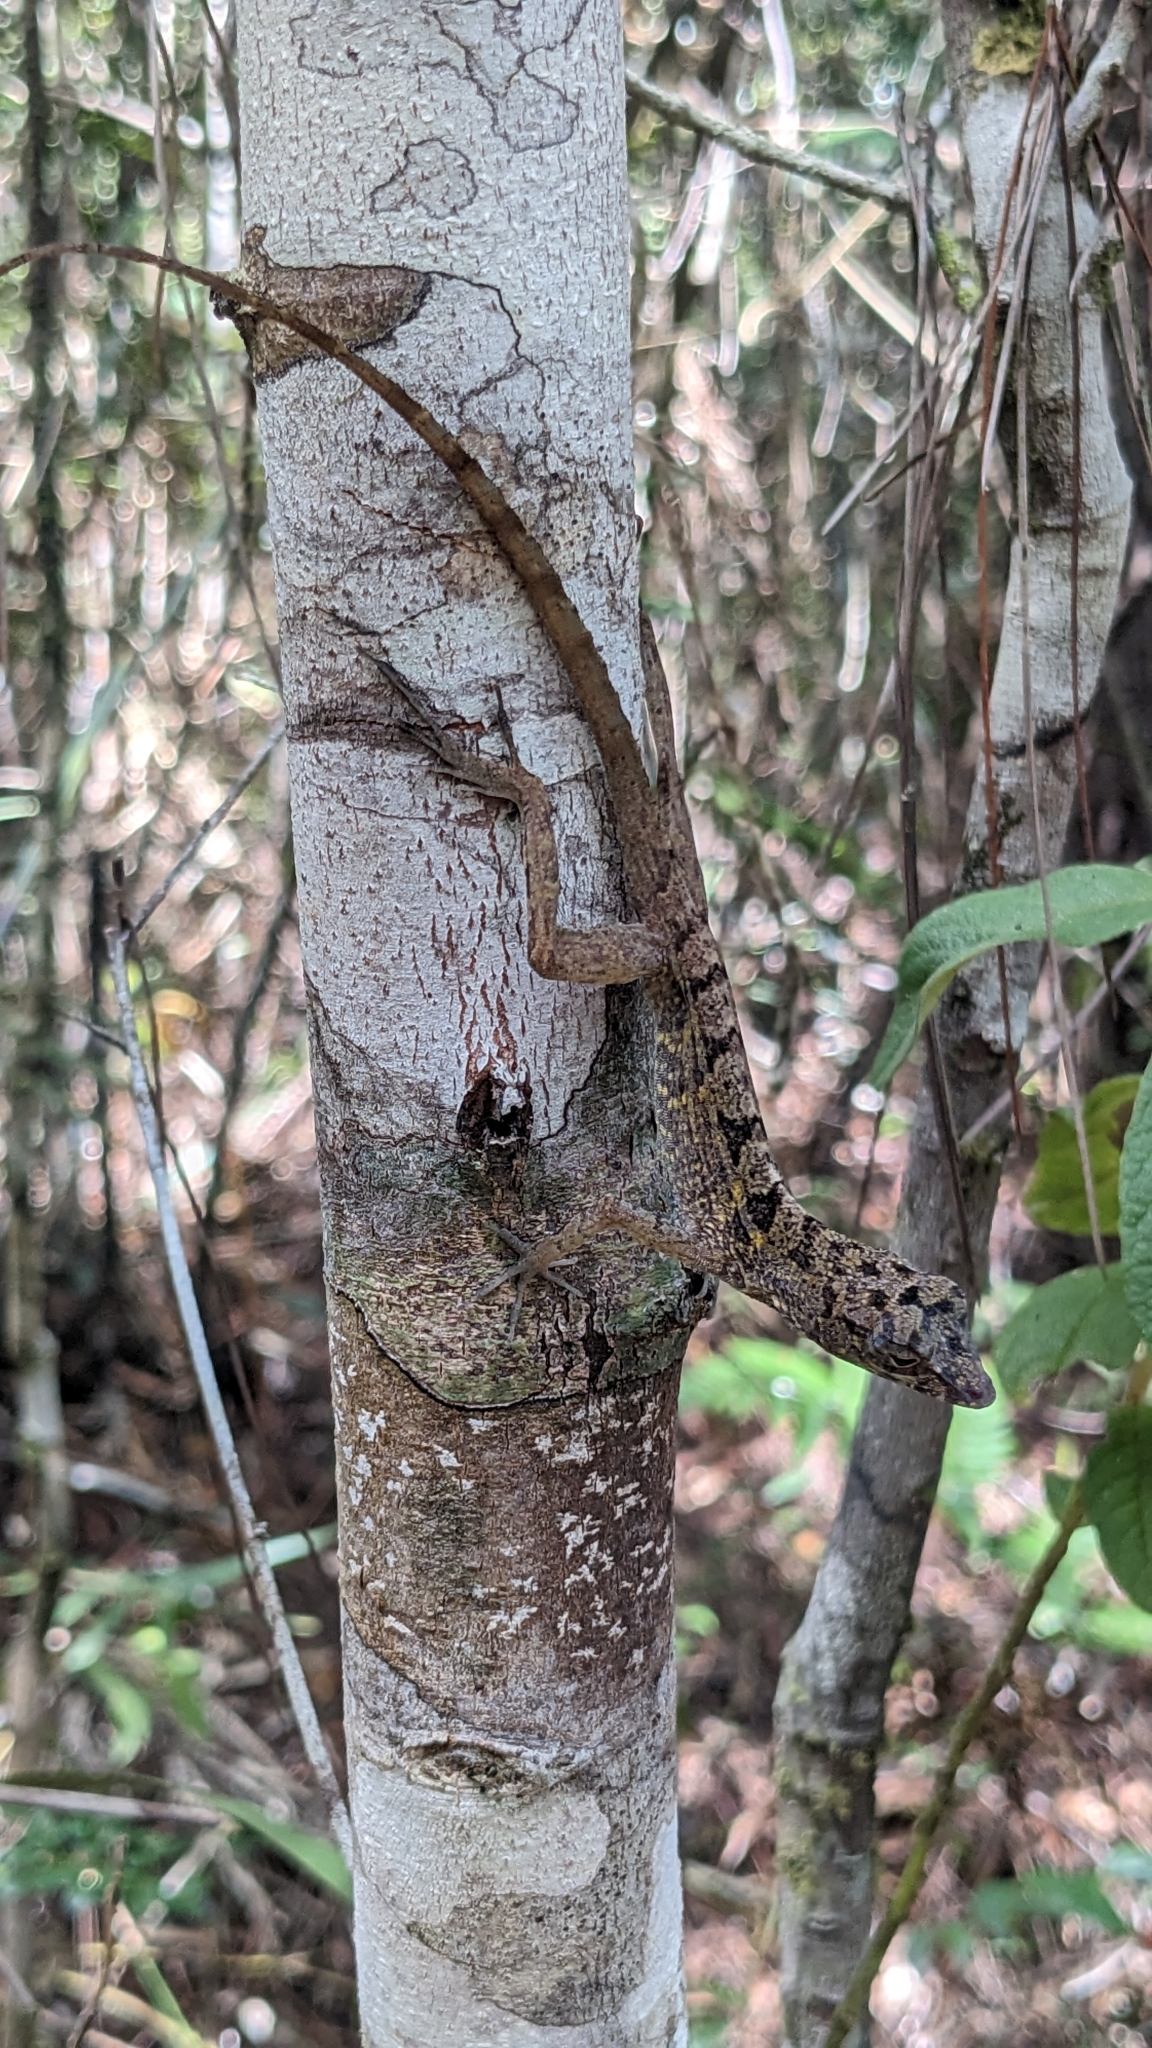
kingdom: Animalia
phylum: Chordata
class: Squamata
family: Dactyloidae
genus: Anolis
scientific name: Anolis rubribarbus
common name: Sagua de tanamo anole
